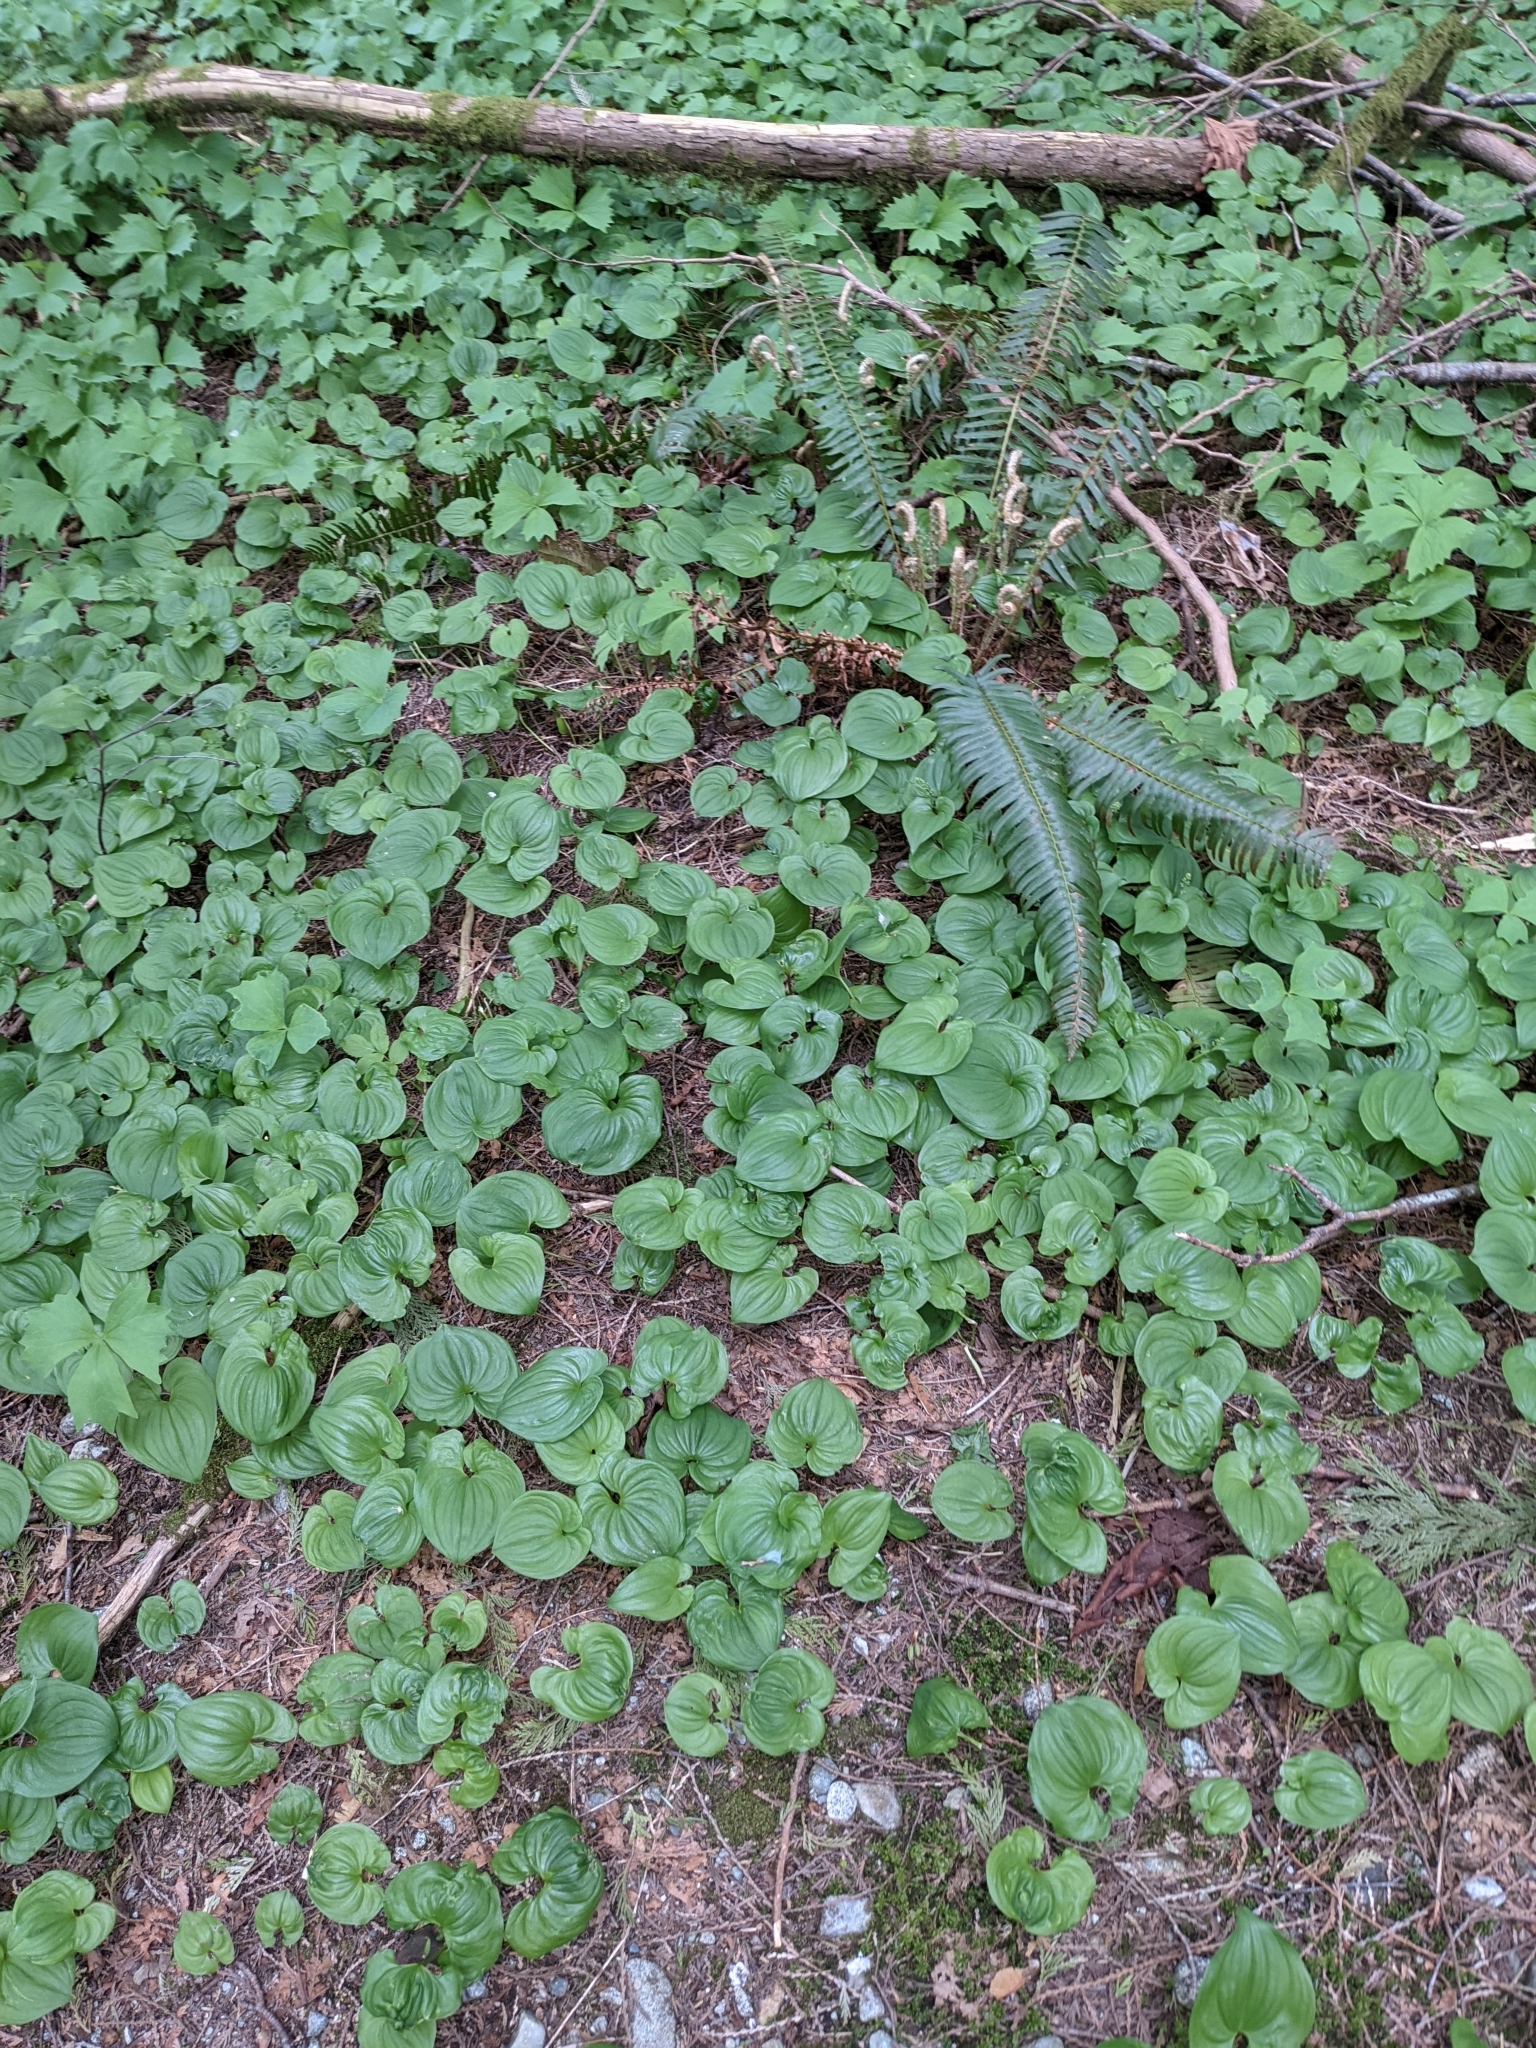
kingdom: Plantae
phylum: Tracheophyta
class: Liliopsida
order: Asparagales
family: Asparagaceae
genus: Maianthemum
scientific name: Maianthemum dilatatum
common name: False lily-of-the-valley
